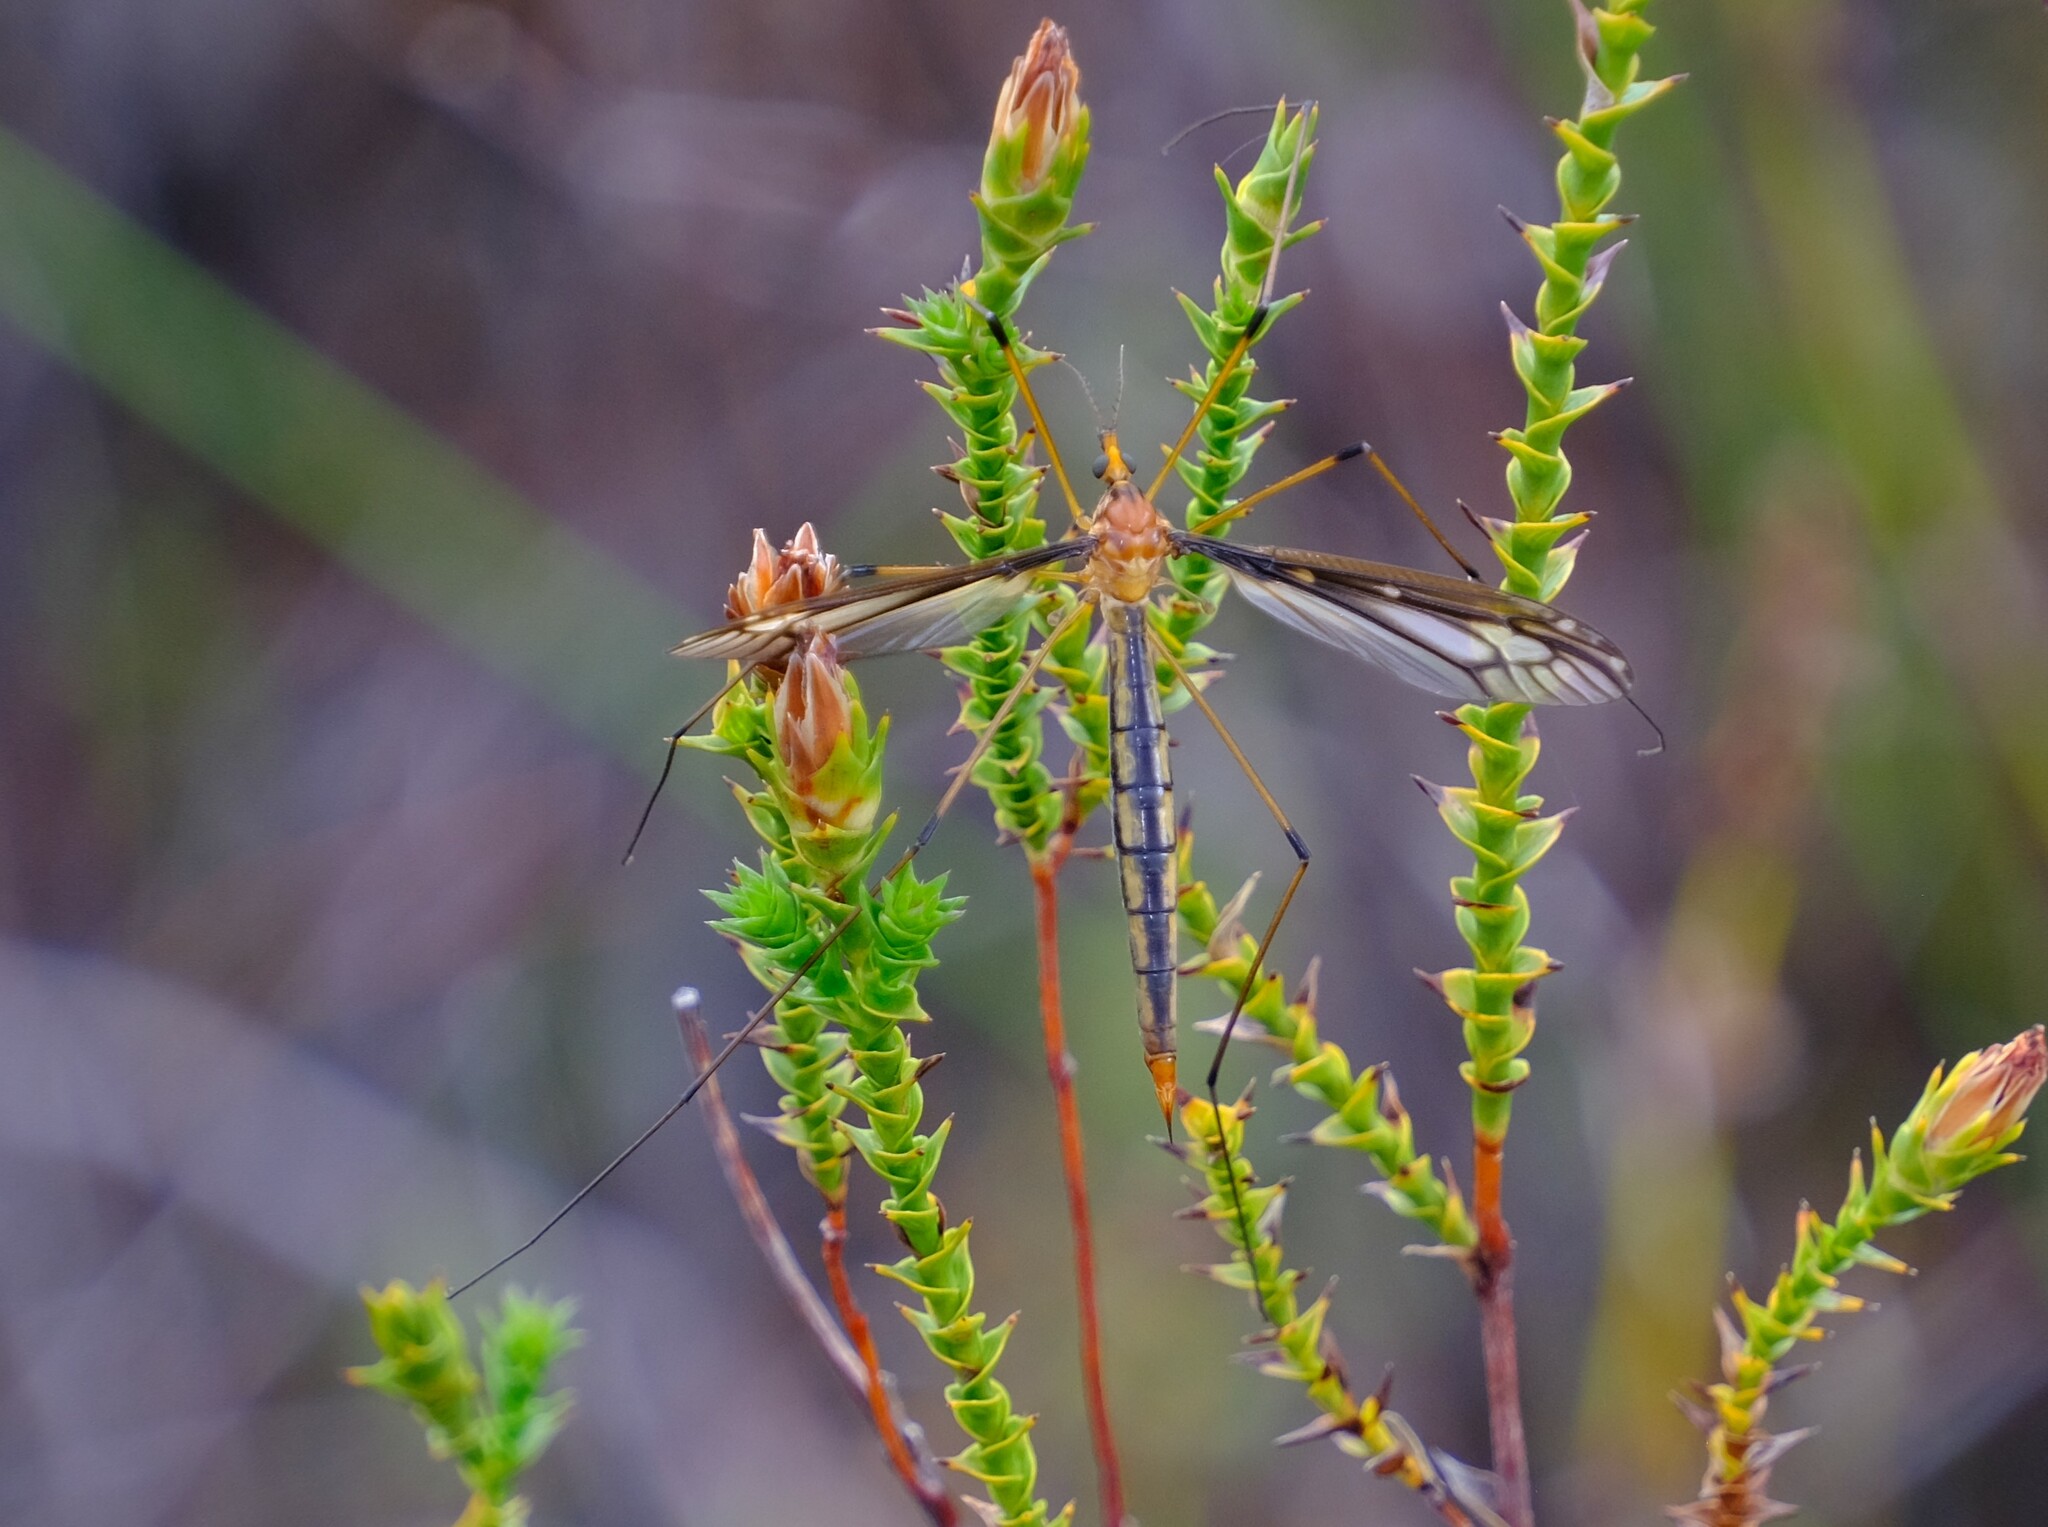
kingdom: Animalia
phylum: Arthropoda
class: Insecta
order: Diptera
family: Tipulidae
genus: Ptilogyna
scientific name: Ptilogyna ramicornis
